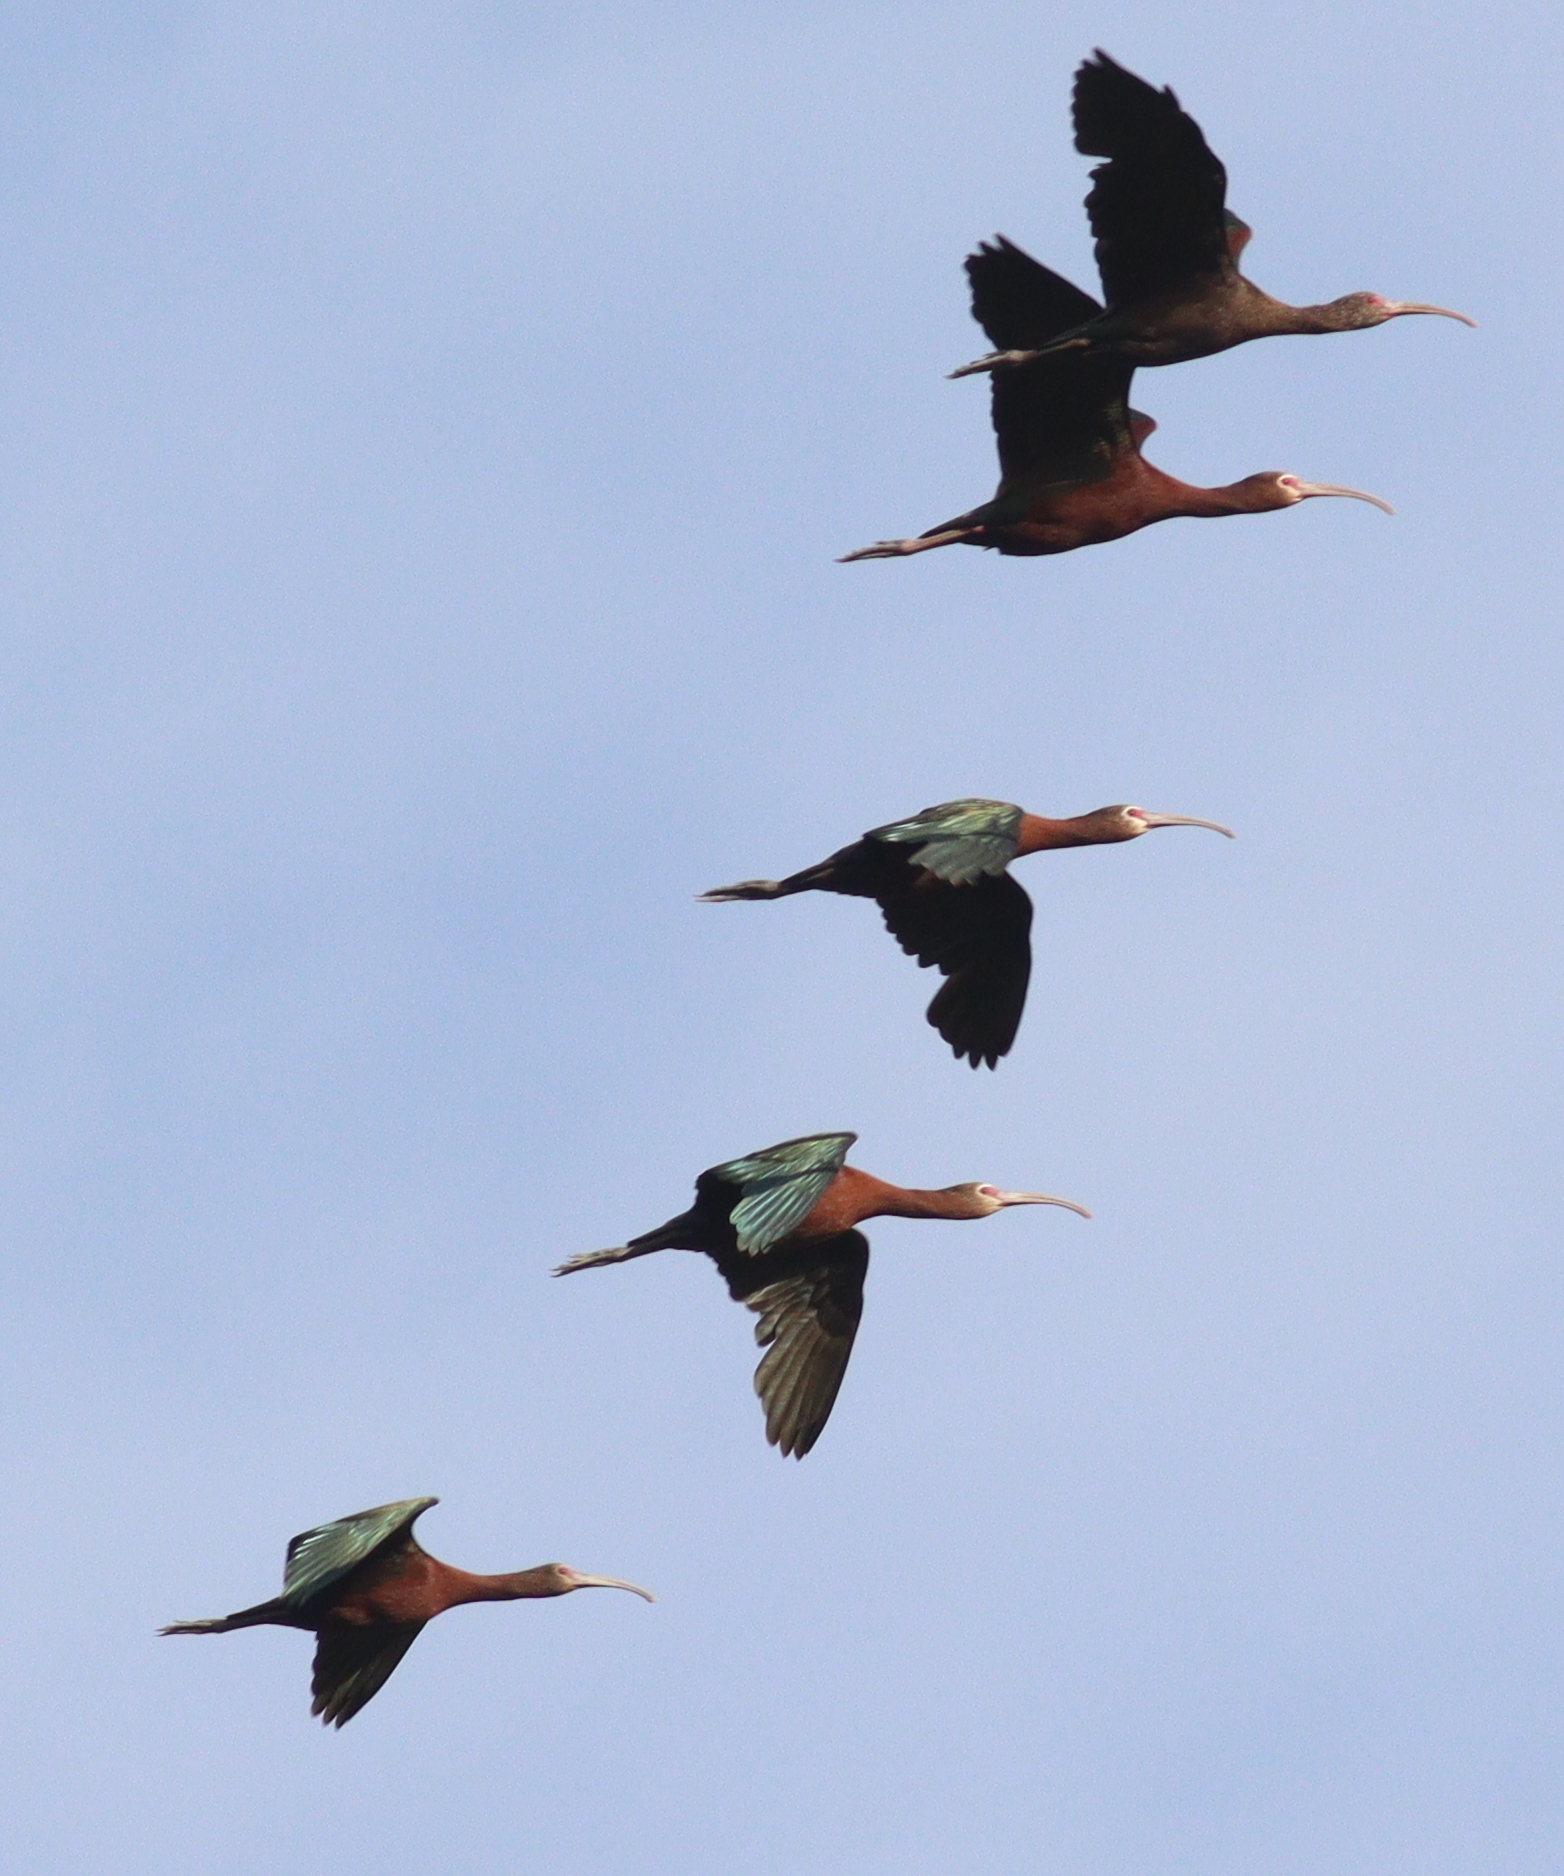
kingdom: Animalia
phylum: Chordata
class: Aves
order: Pelecaniformes
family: Threskiornithidae
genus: Plegadis
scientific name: Plegadis chihi
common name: White-faced ibis
